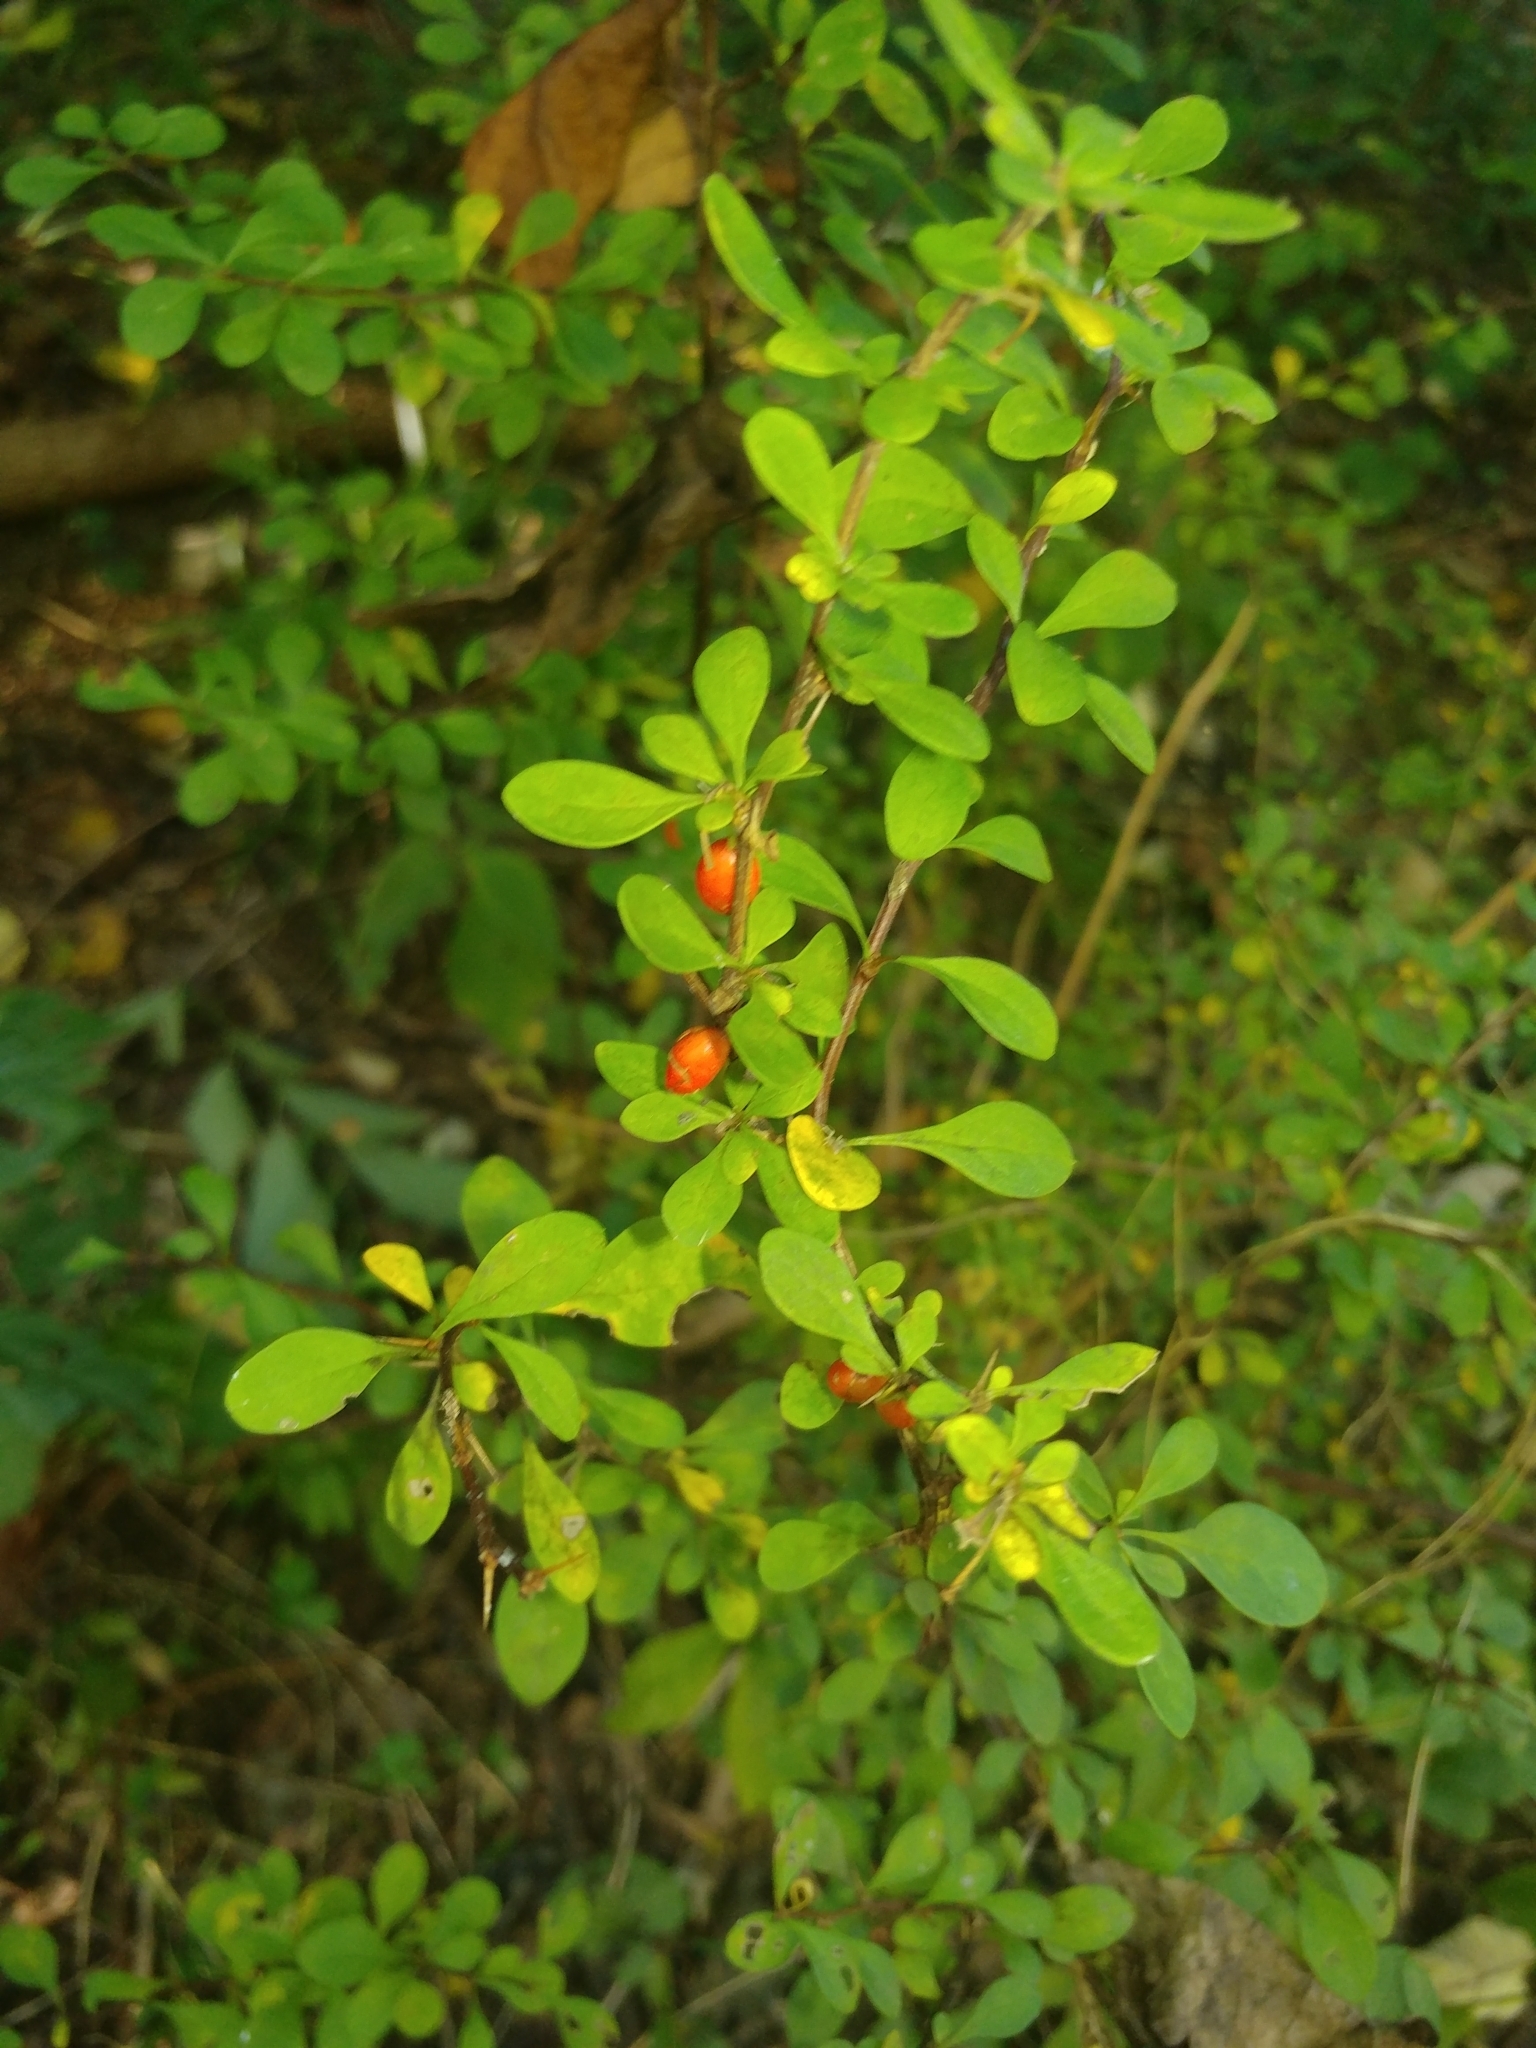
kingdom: Plantae
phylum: Tracheophyta
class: Magnoliopsida
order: Ranunculales
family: Berberidaceae
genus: Berberis
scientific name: Berberis thunbergii
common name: Japanese barberry
